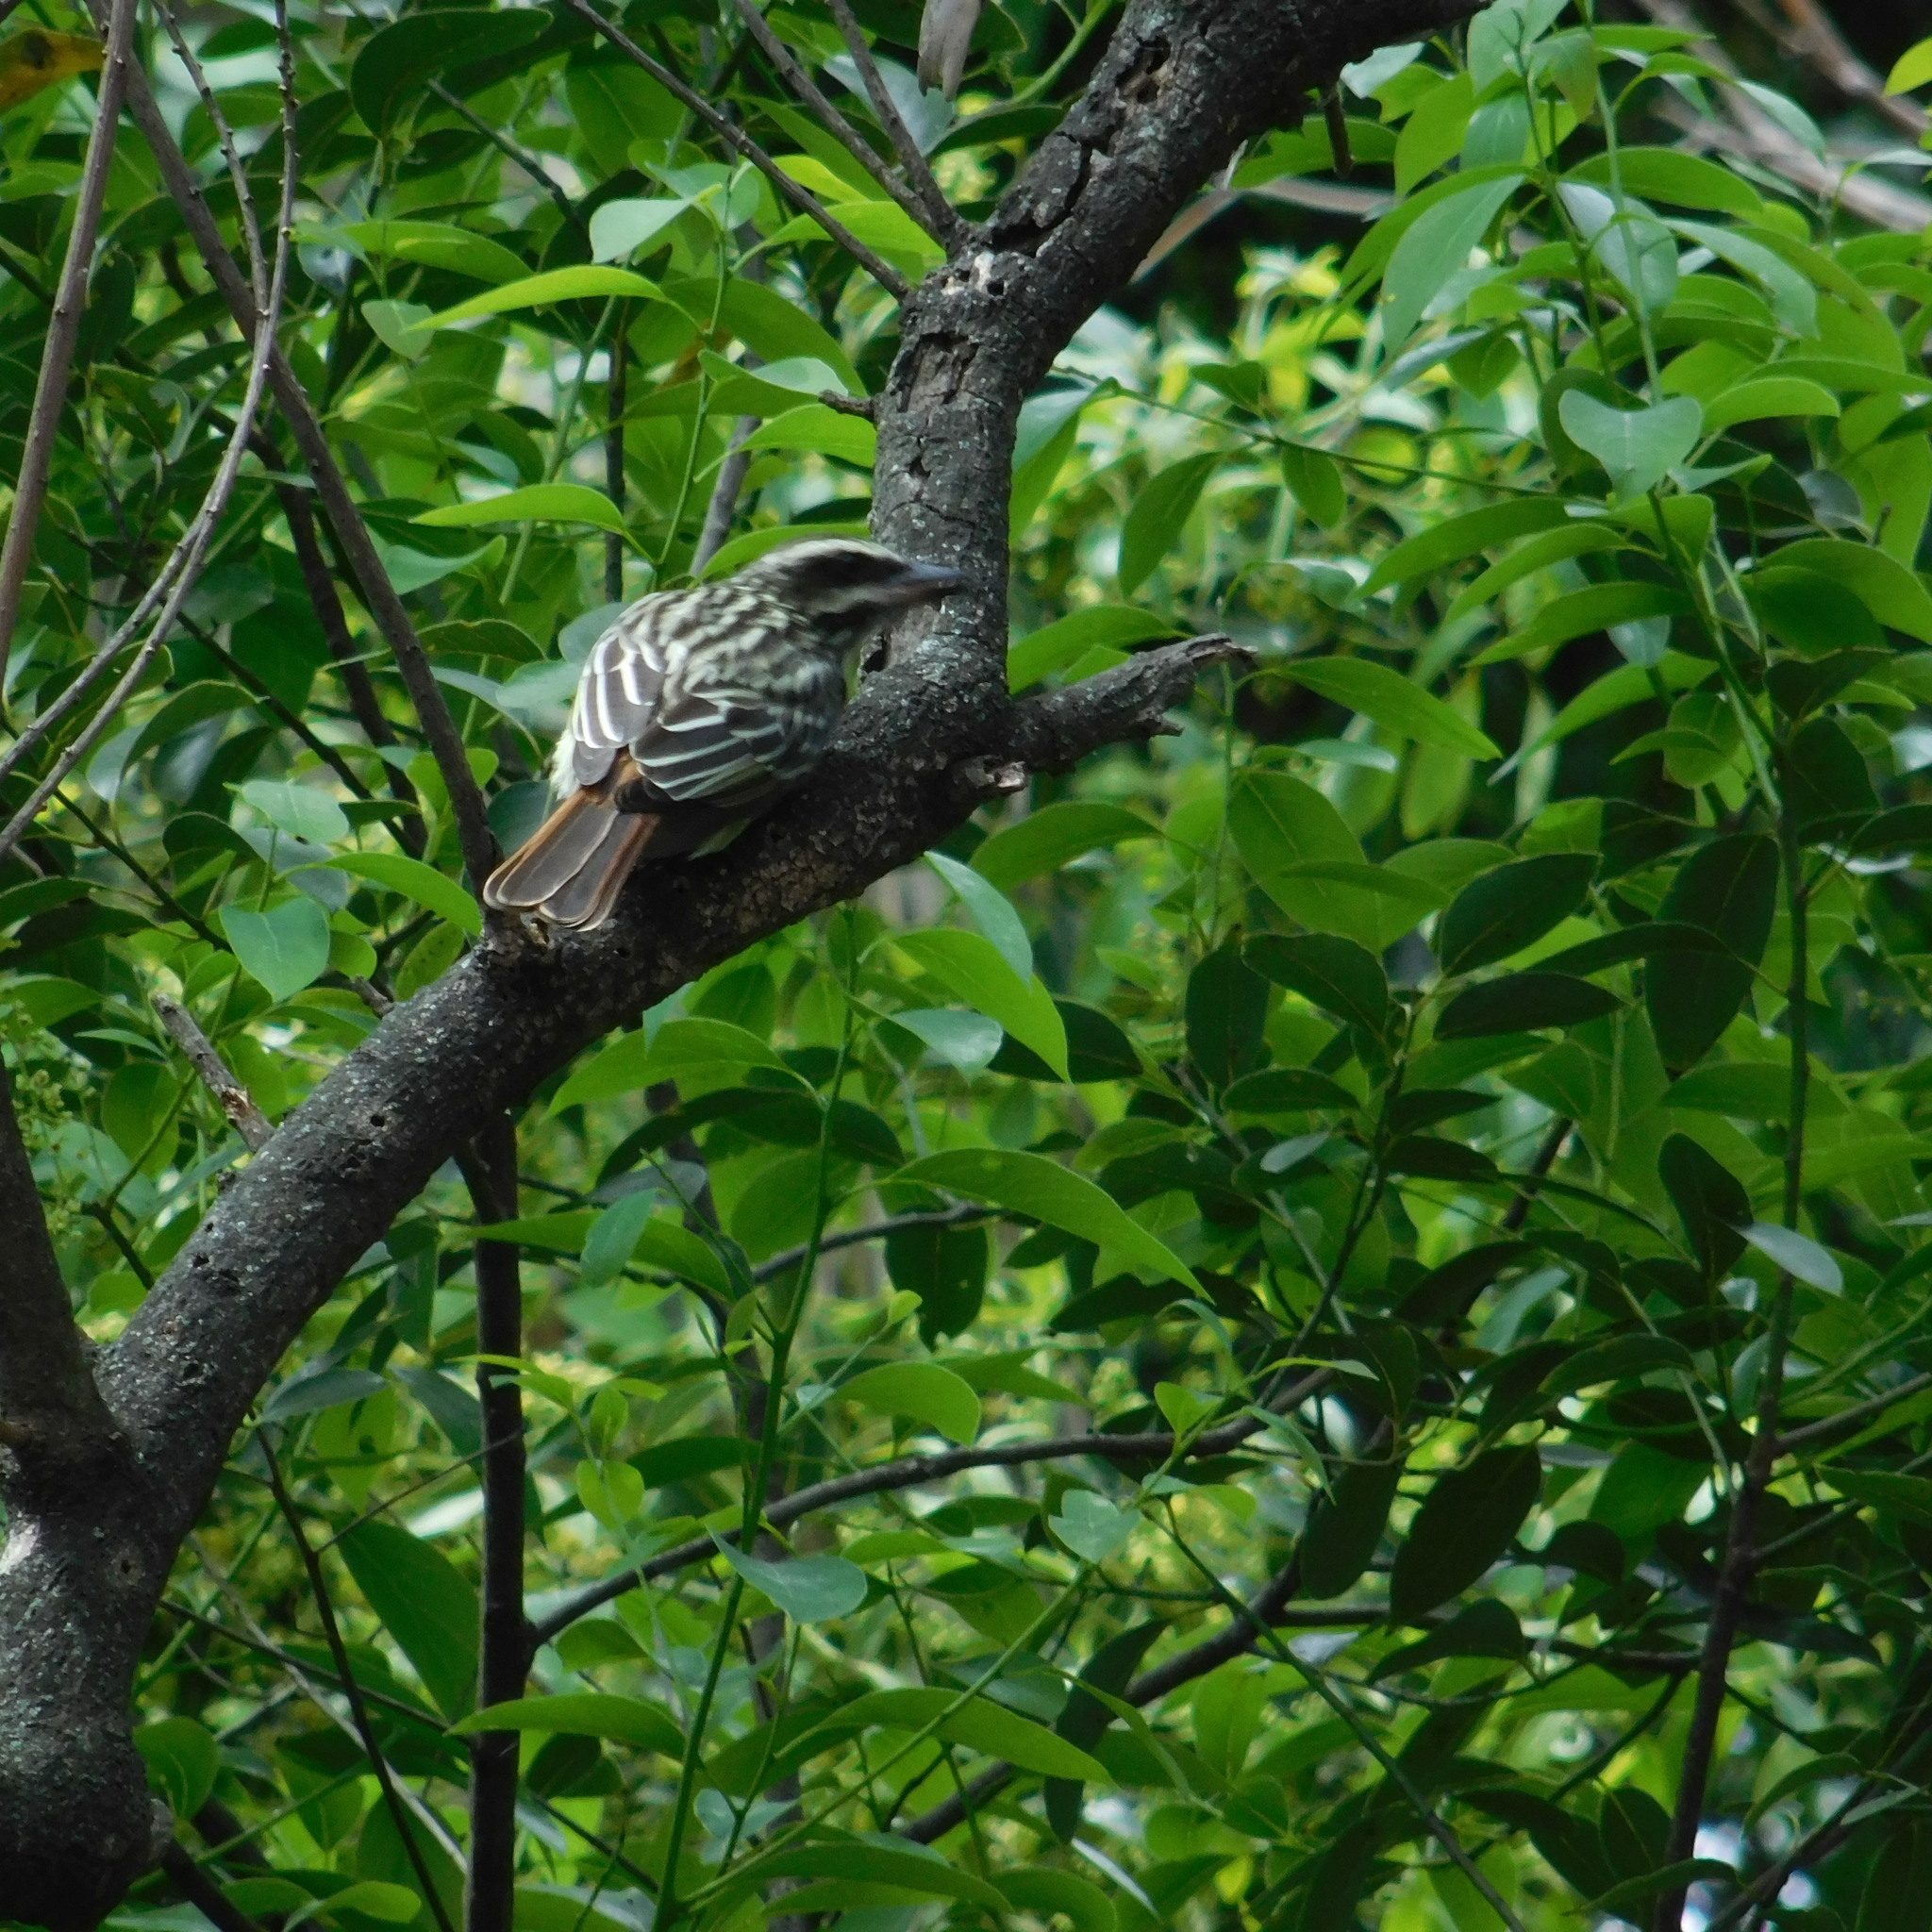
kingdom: Animalia
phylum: Chordata
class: Aves
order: Passeriformes
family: Tyrannidae
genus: Myiodynastes
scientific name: Myiodynastes maculatus
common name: Streaked flycatcher
